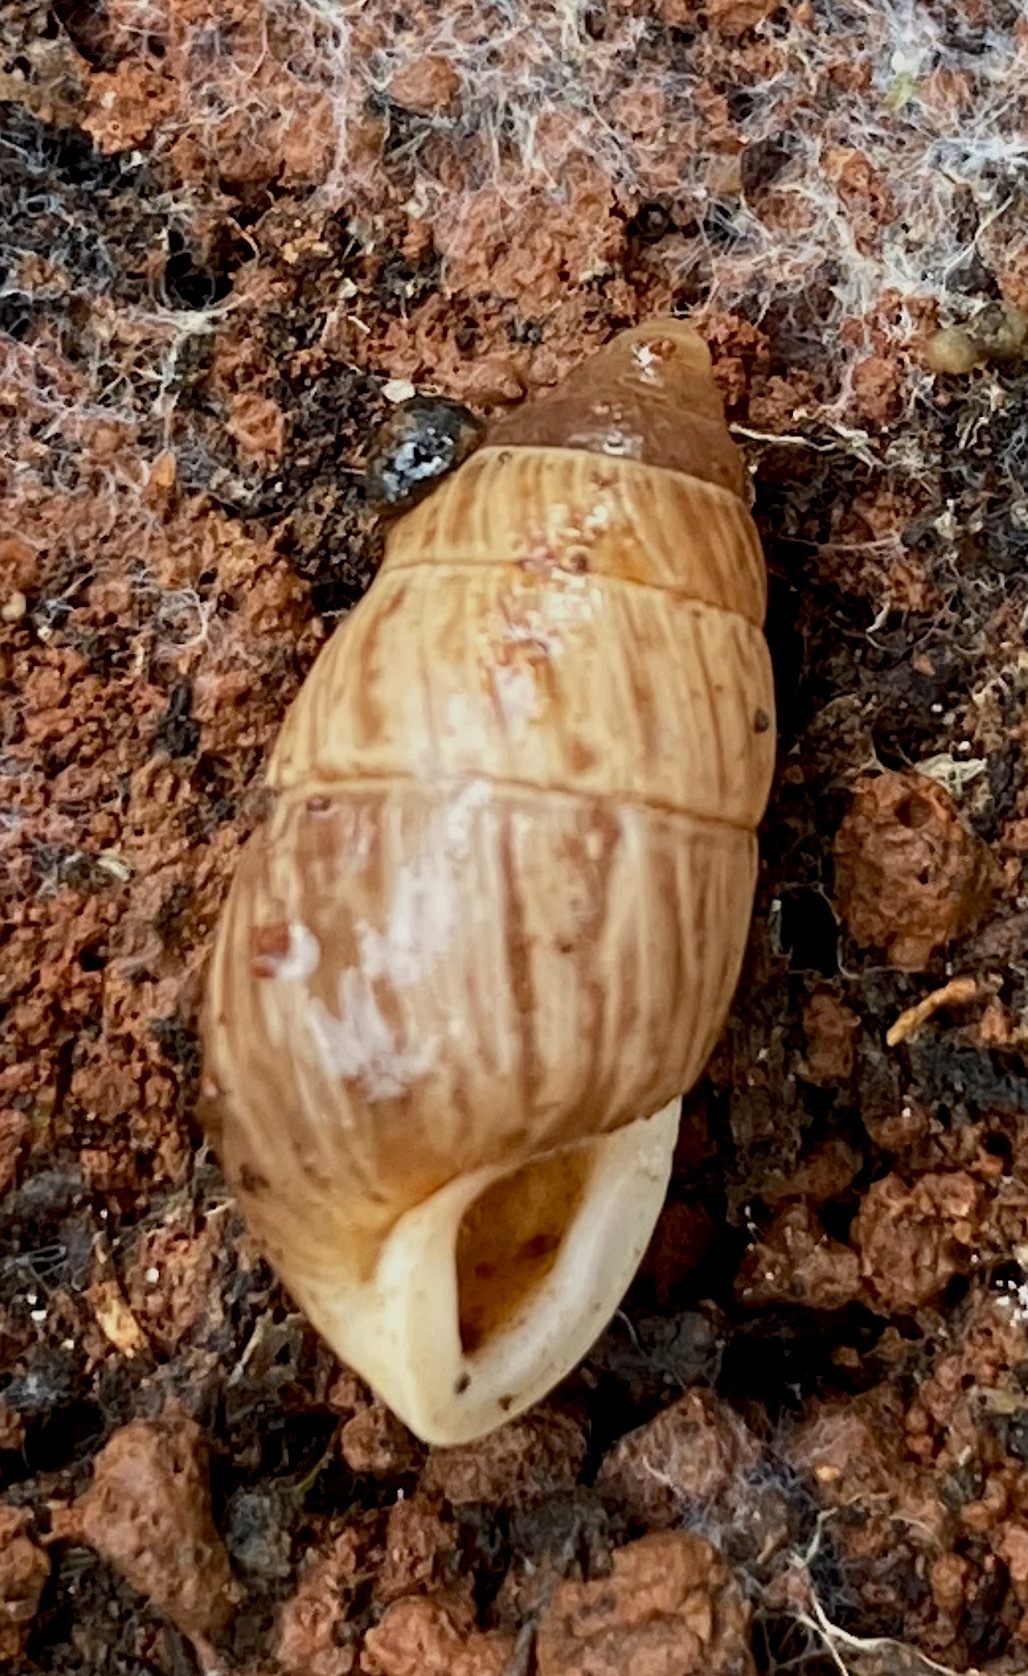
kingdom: Animalia
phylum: Mollusca
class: Gastropoda
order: Stylommatophora
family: Enidae
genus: Euchondrus
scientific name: Euchondrus parreyssi
